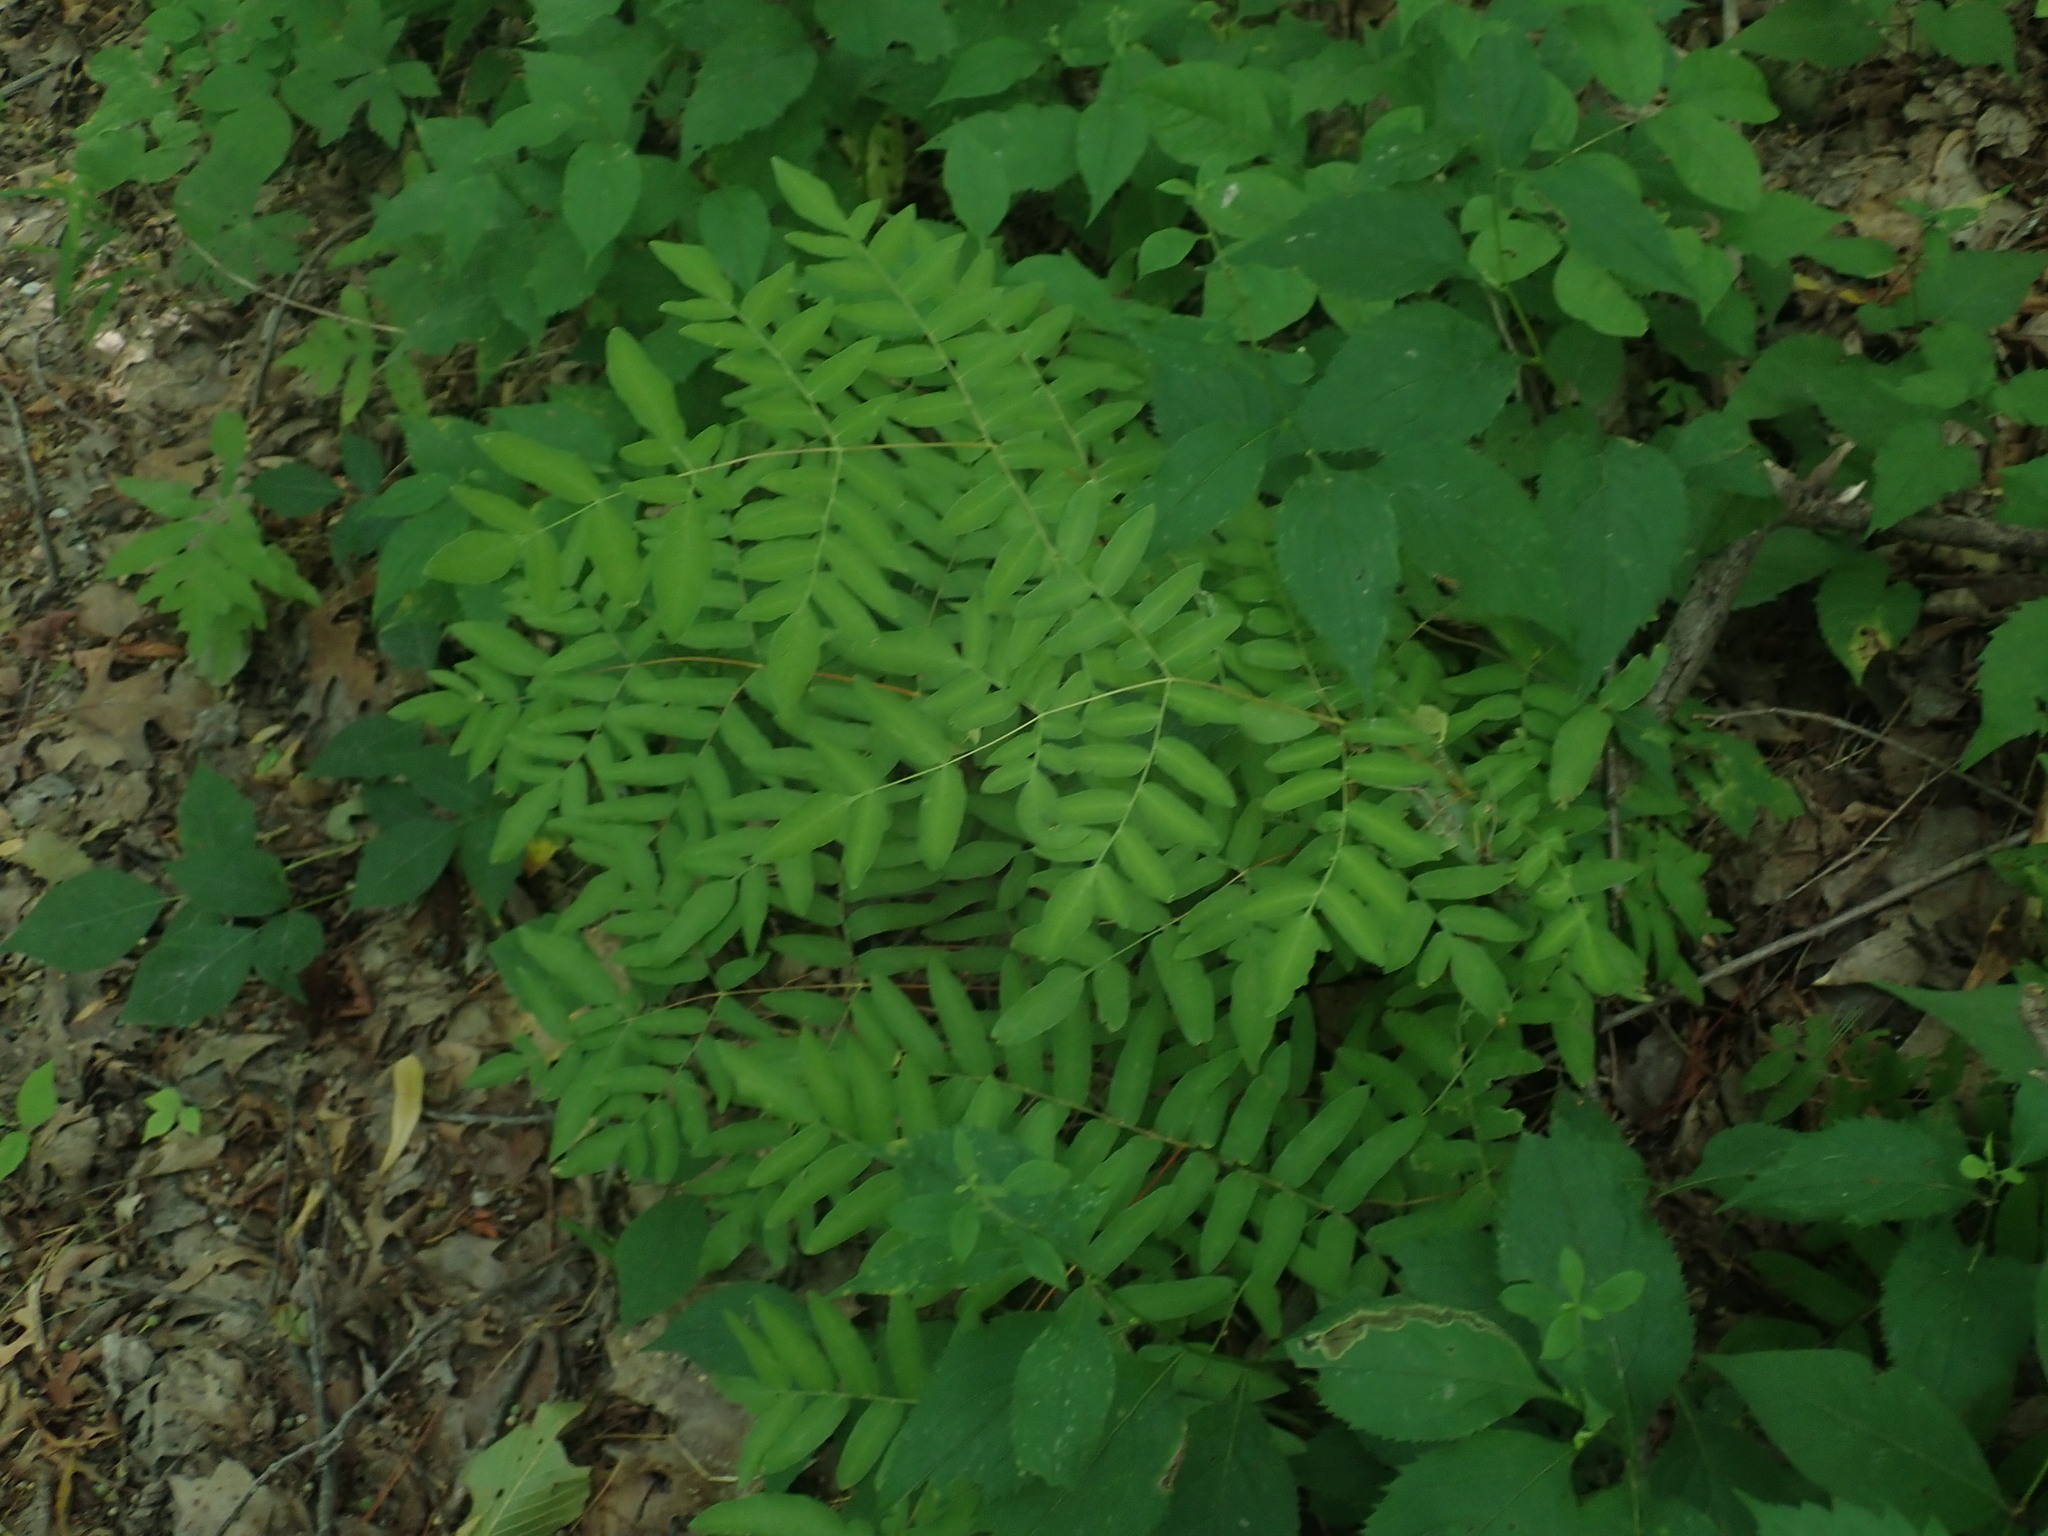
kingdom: Plantae
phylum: Tracheophyta
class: Polypodiopsida
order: Osmundales
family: Osmundaceae
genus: Osmunda
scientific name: Osmunda spectabilis
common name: American royal fern
